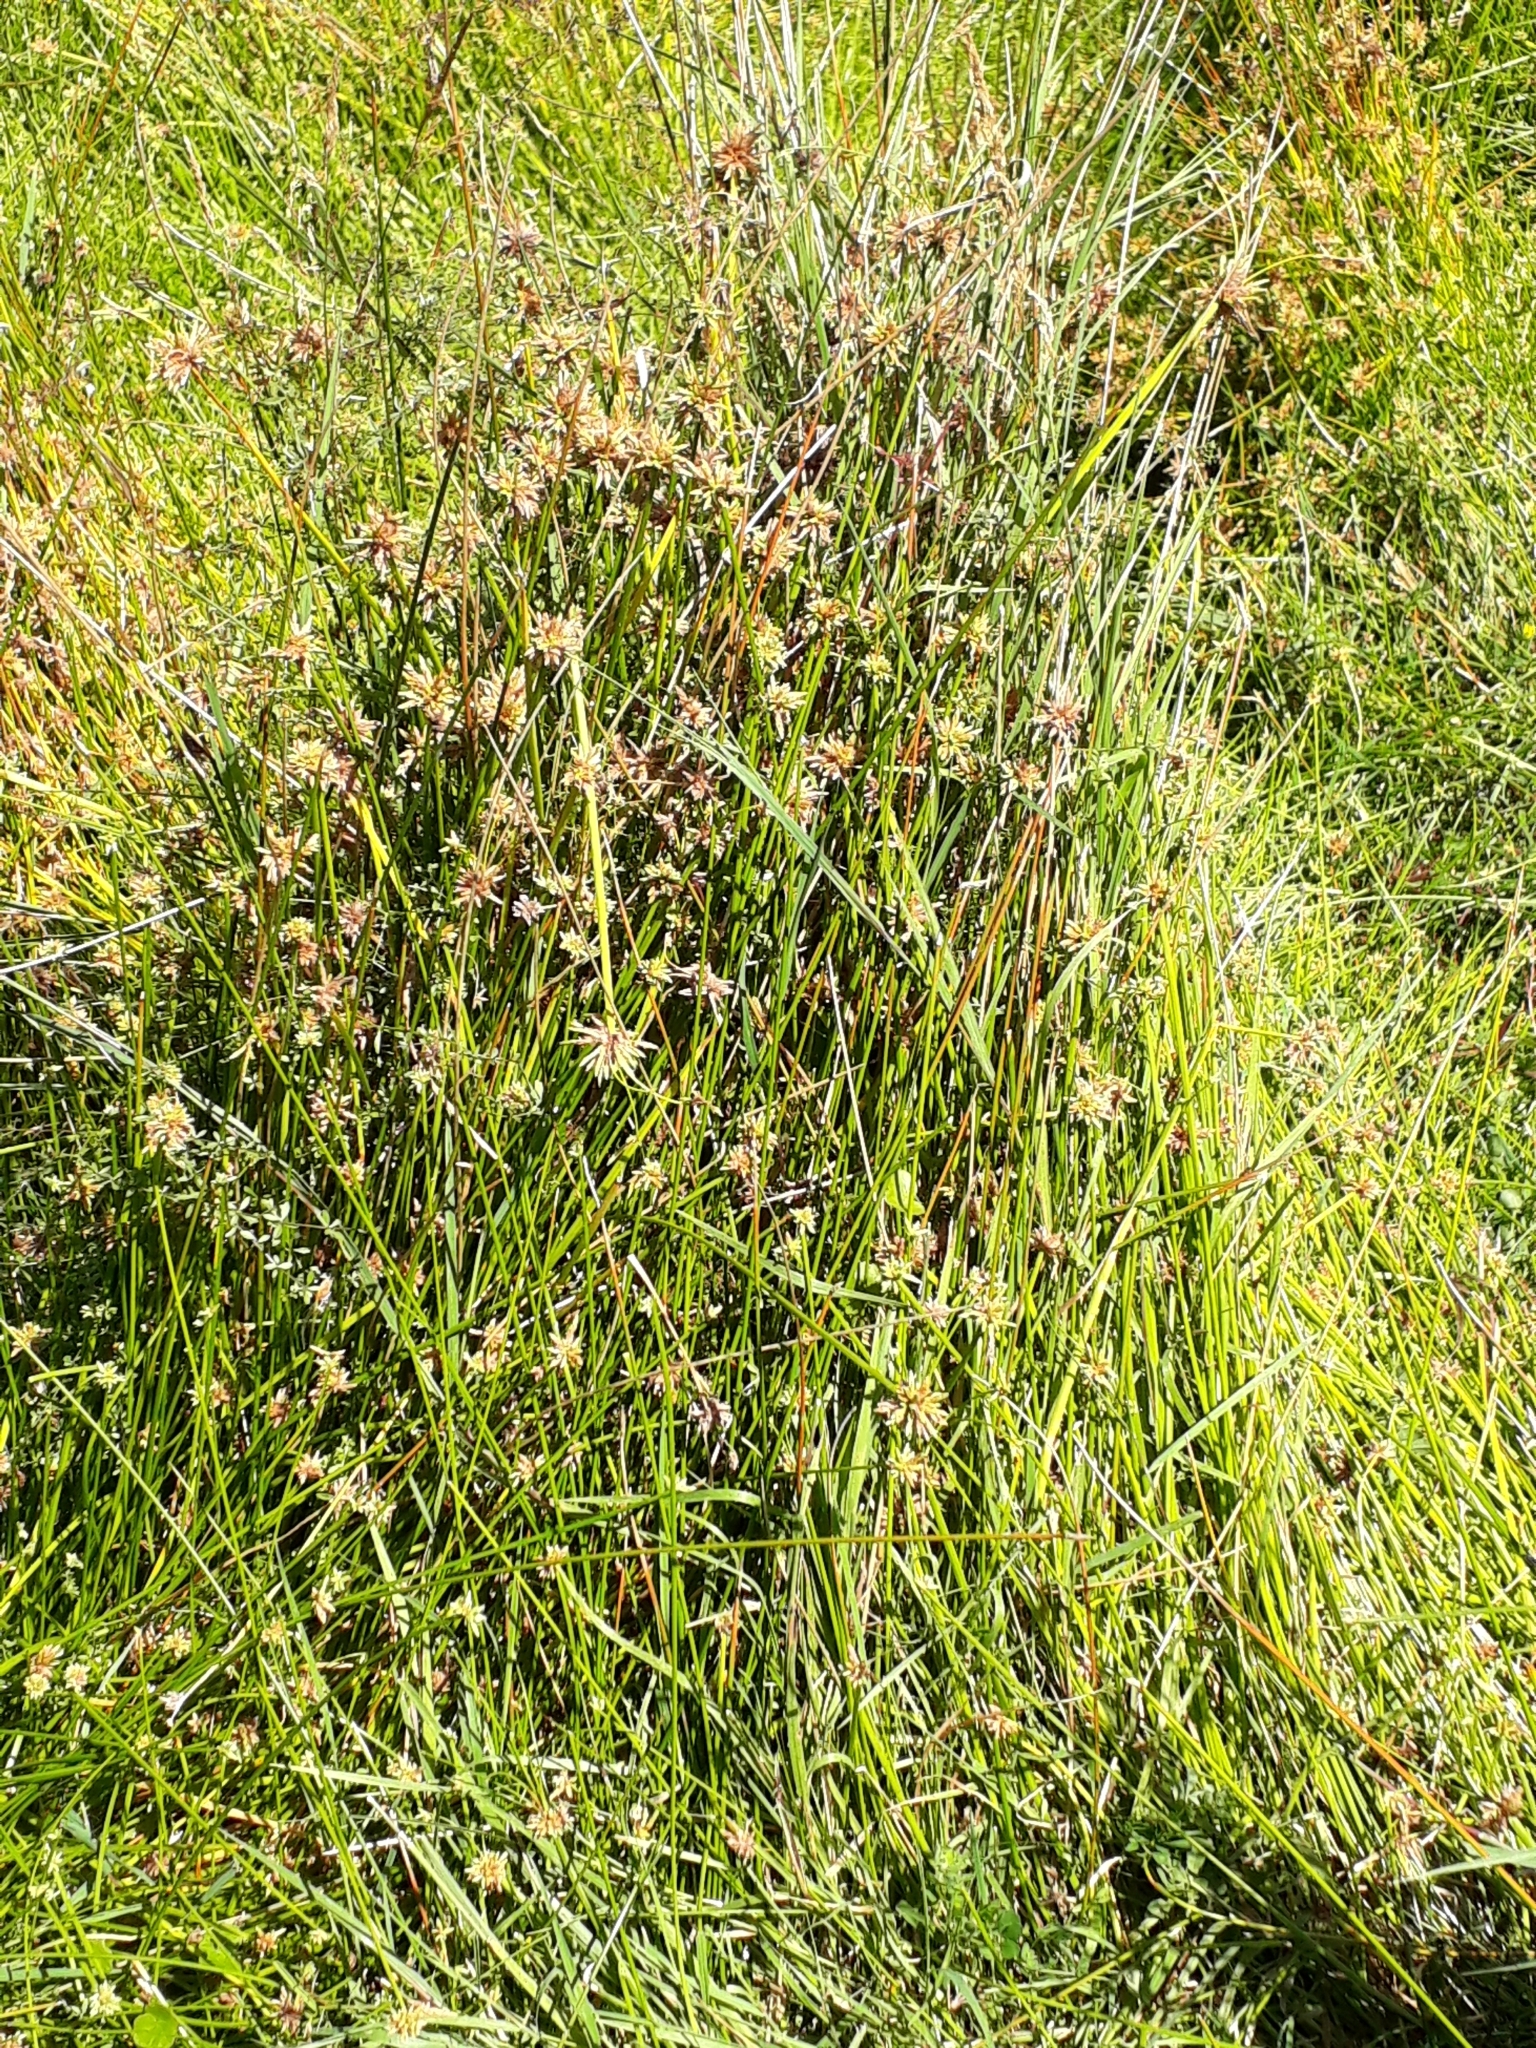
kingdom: Plantae
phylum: Tracheophyta
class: Liliopsida
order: Poales
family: Cyperaceae
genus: Isolepis
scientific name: Isolepis prolifera
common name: Proliferating bulrush
